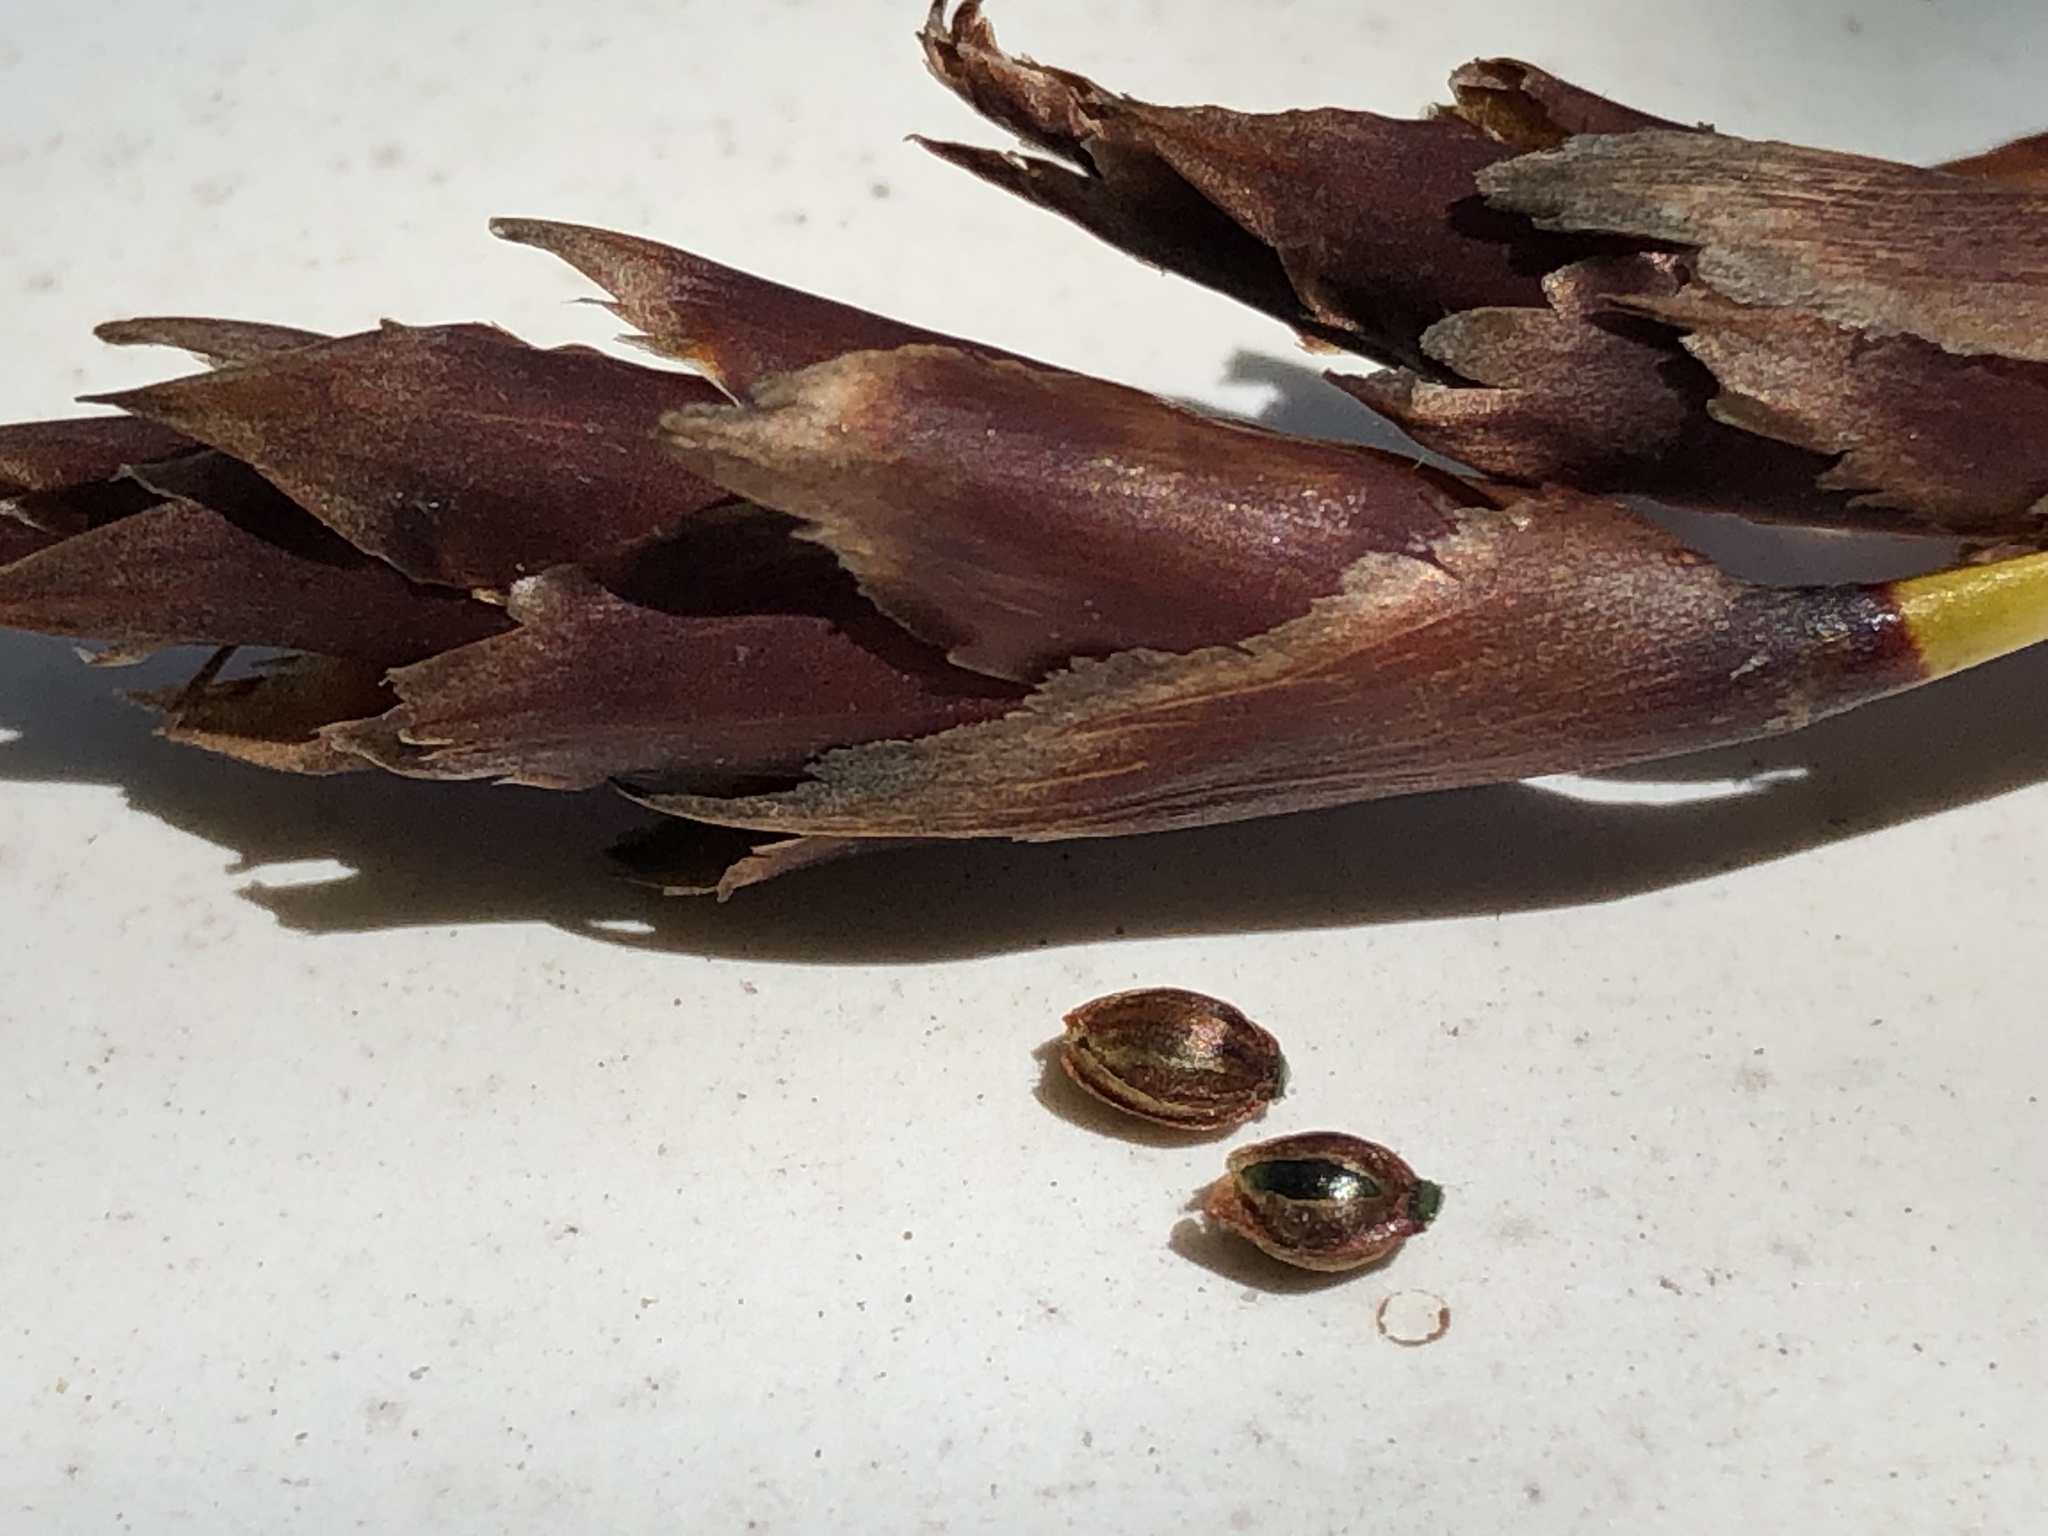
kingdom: Plantae
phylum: Tracheophyta
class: Liliopsida
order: Poales
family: Restionaceae
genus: Staberoha
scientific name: Staberoha banksii
